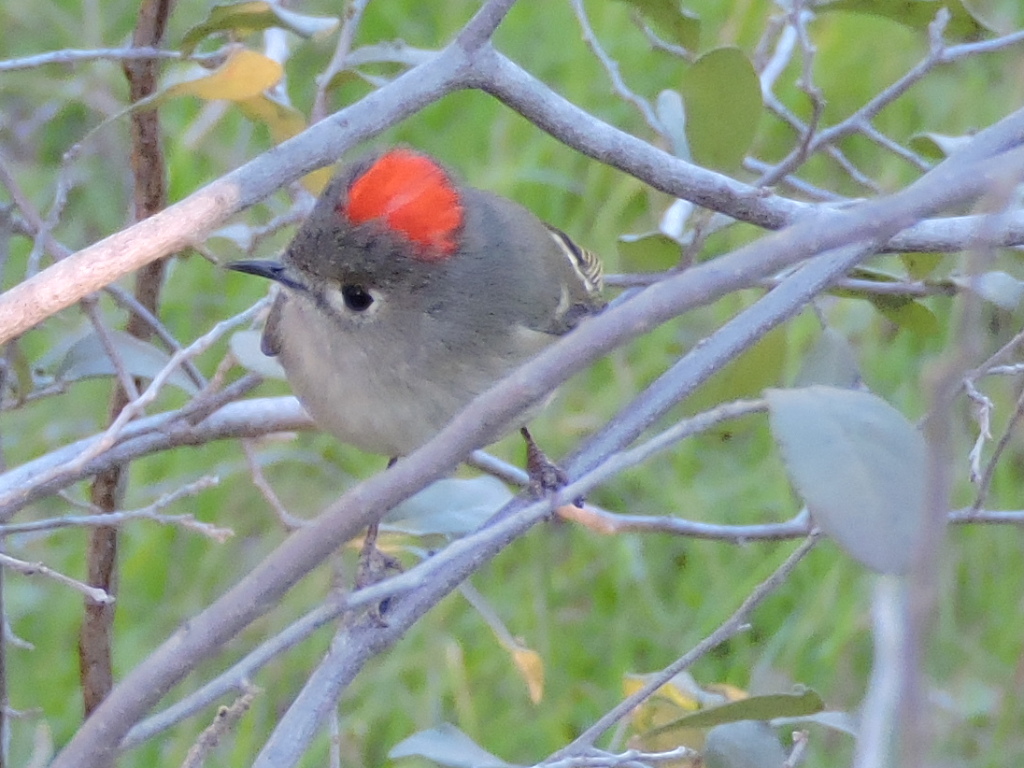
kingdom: Animalia
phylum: Chordata
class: Aves
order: Passeriformes
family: Regulidae
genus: Regulus
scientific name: Regulus calendula
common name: Ruby-crowned kinglet
